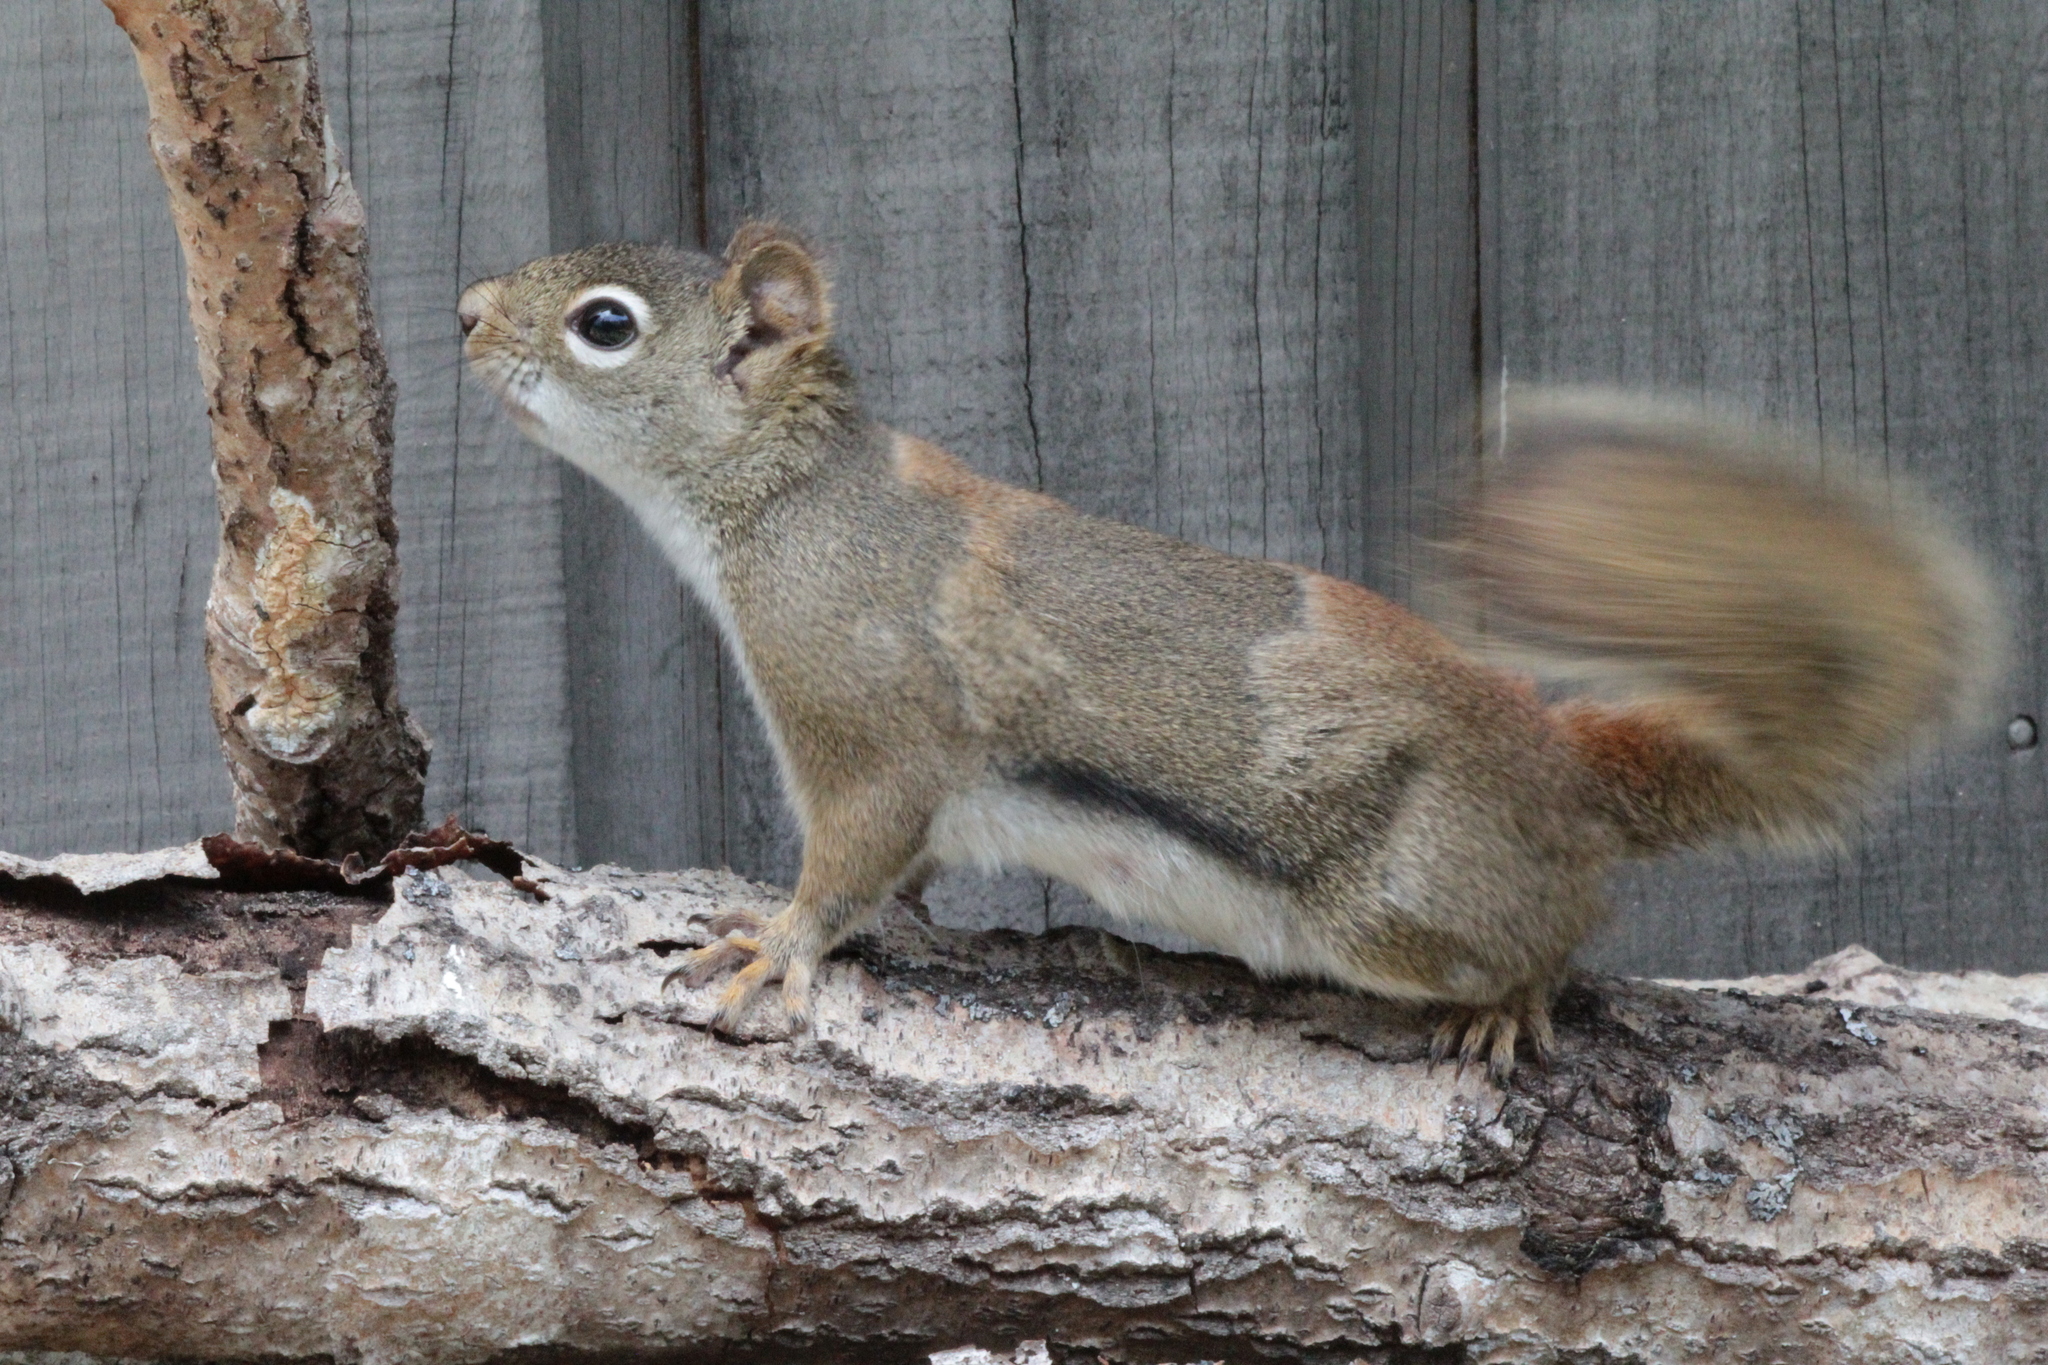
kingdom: Animalia
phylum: Chordata
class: Mammalia
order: Rodentia
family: Sciuridae
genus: Tamiasciurus
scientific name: Tamiasciurus hudsonicus
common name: Red squirrel
